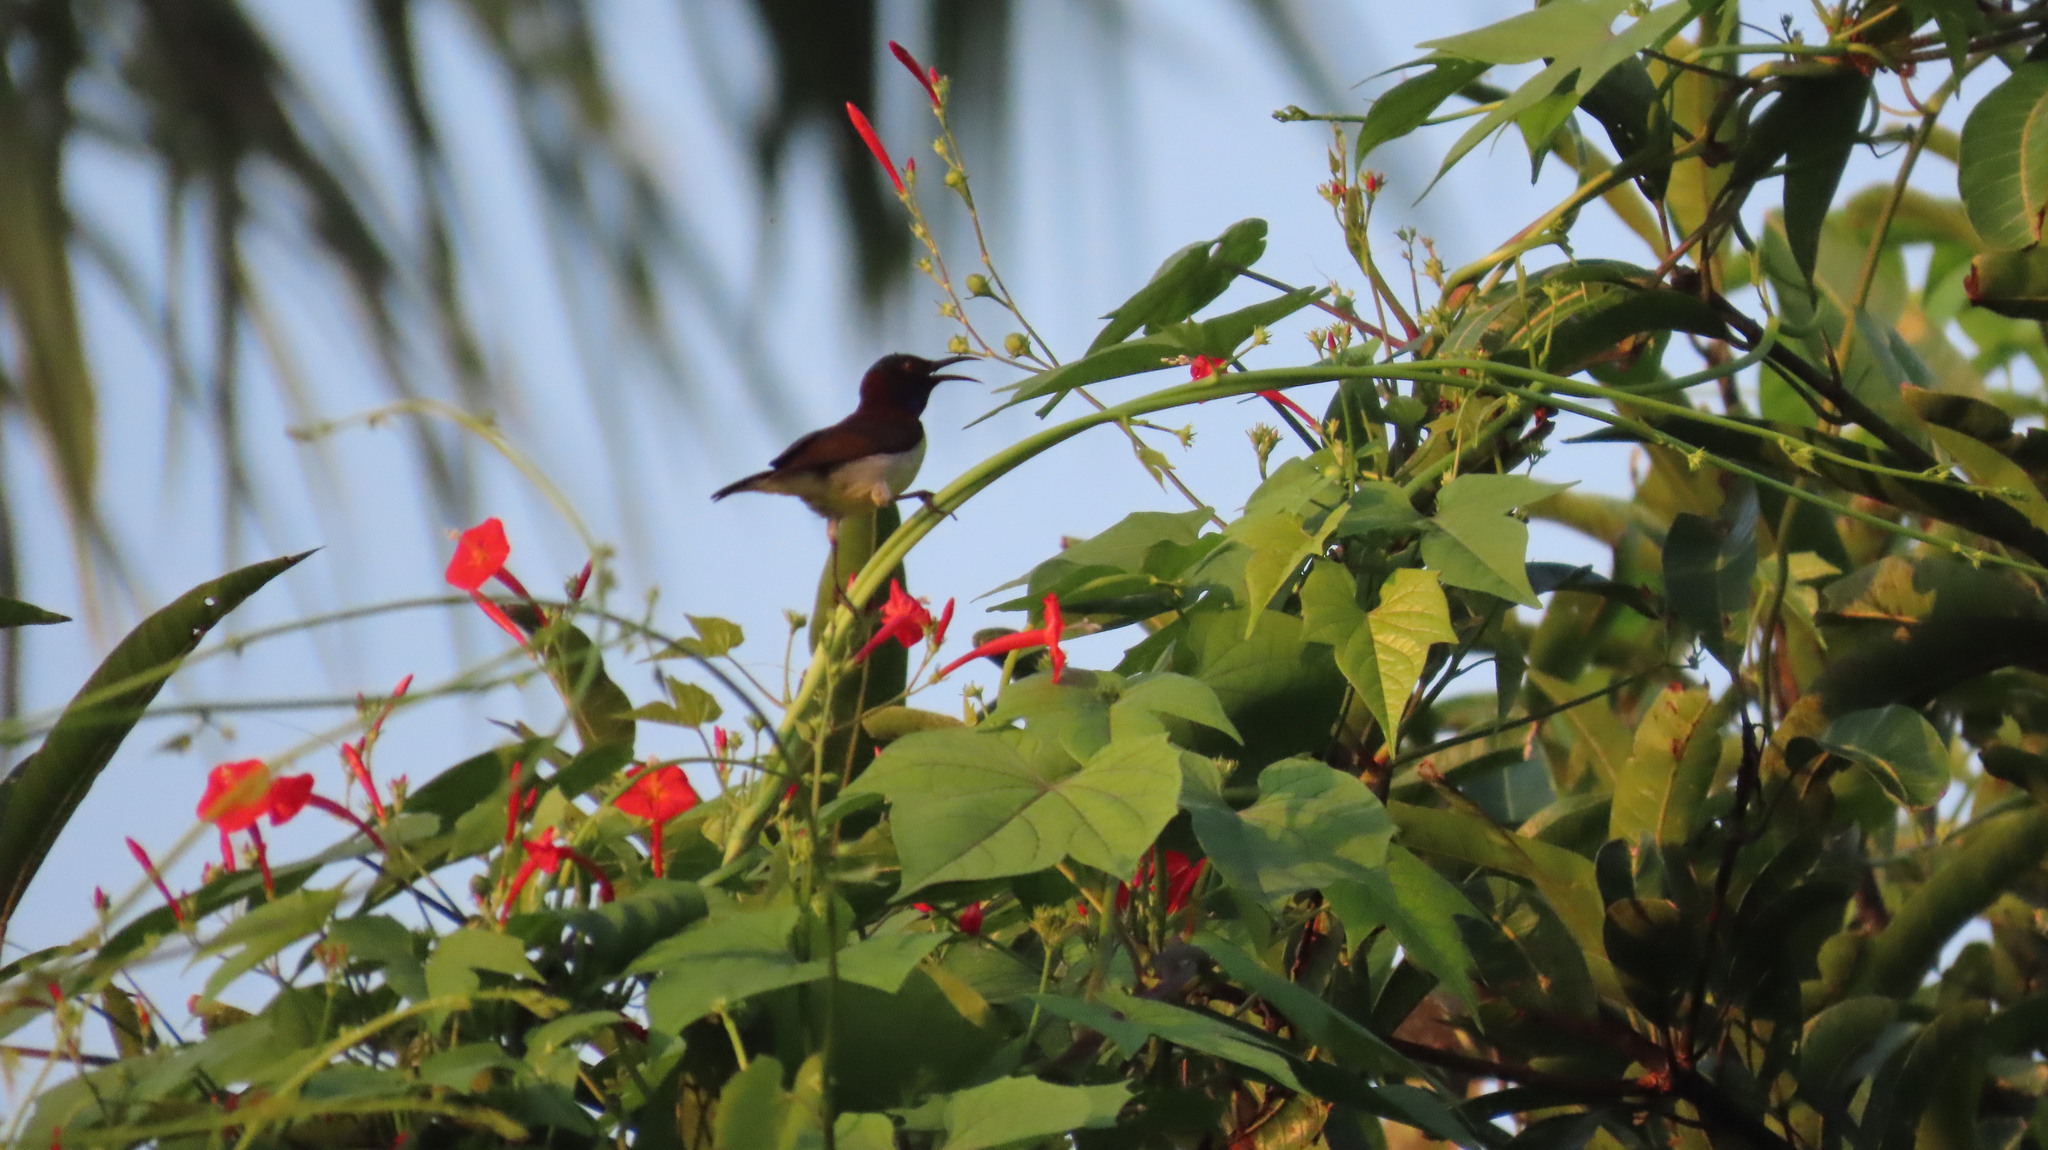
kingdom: Animalia
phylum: Chordata
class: Aves
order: Passeriformes
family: Nectariniidae
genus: Leptocoma
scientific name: Leptocoma zeylonica
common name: Purple-rumped sunbird
